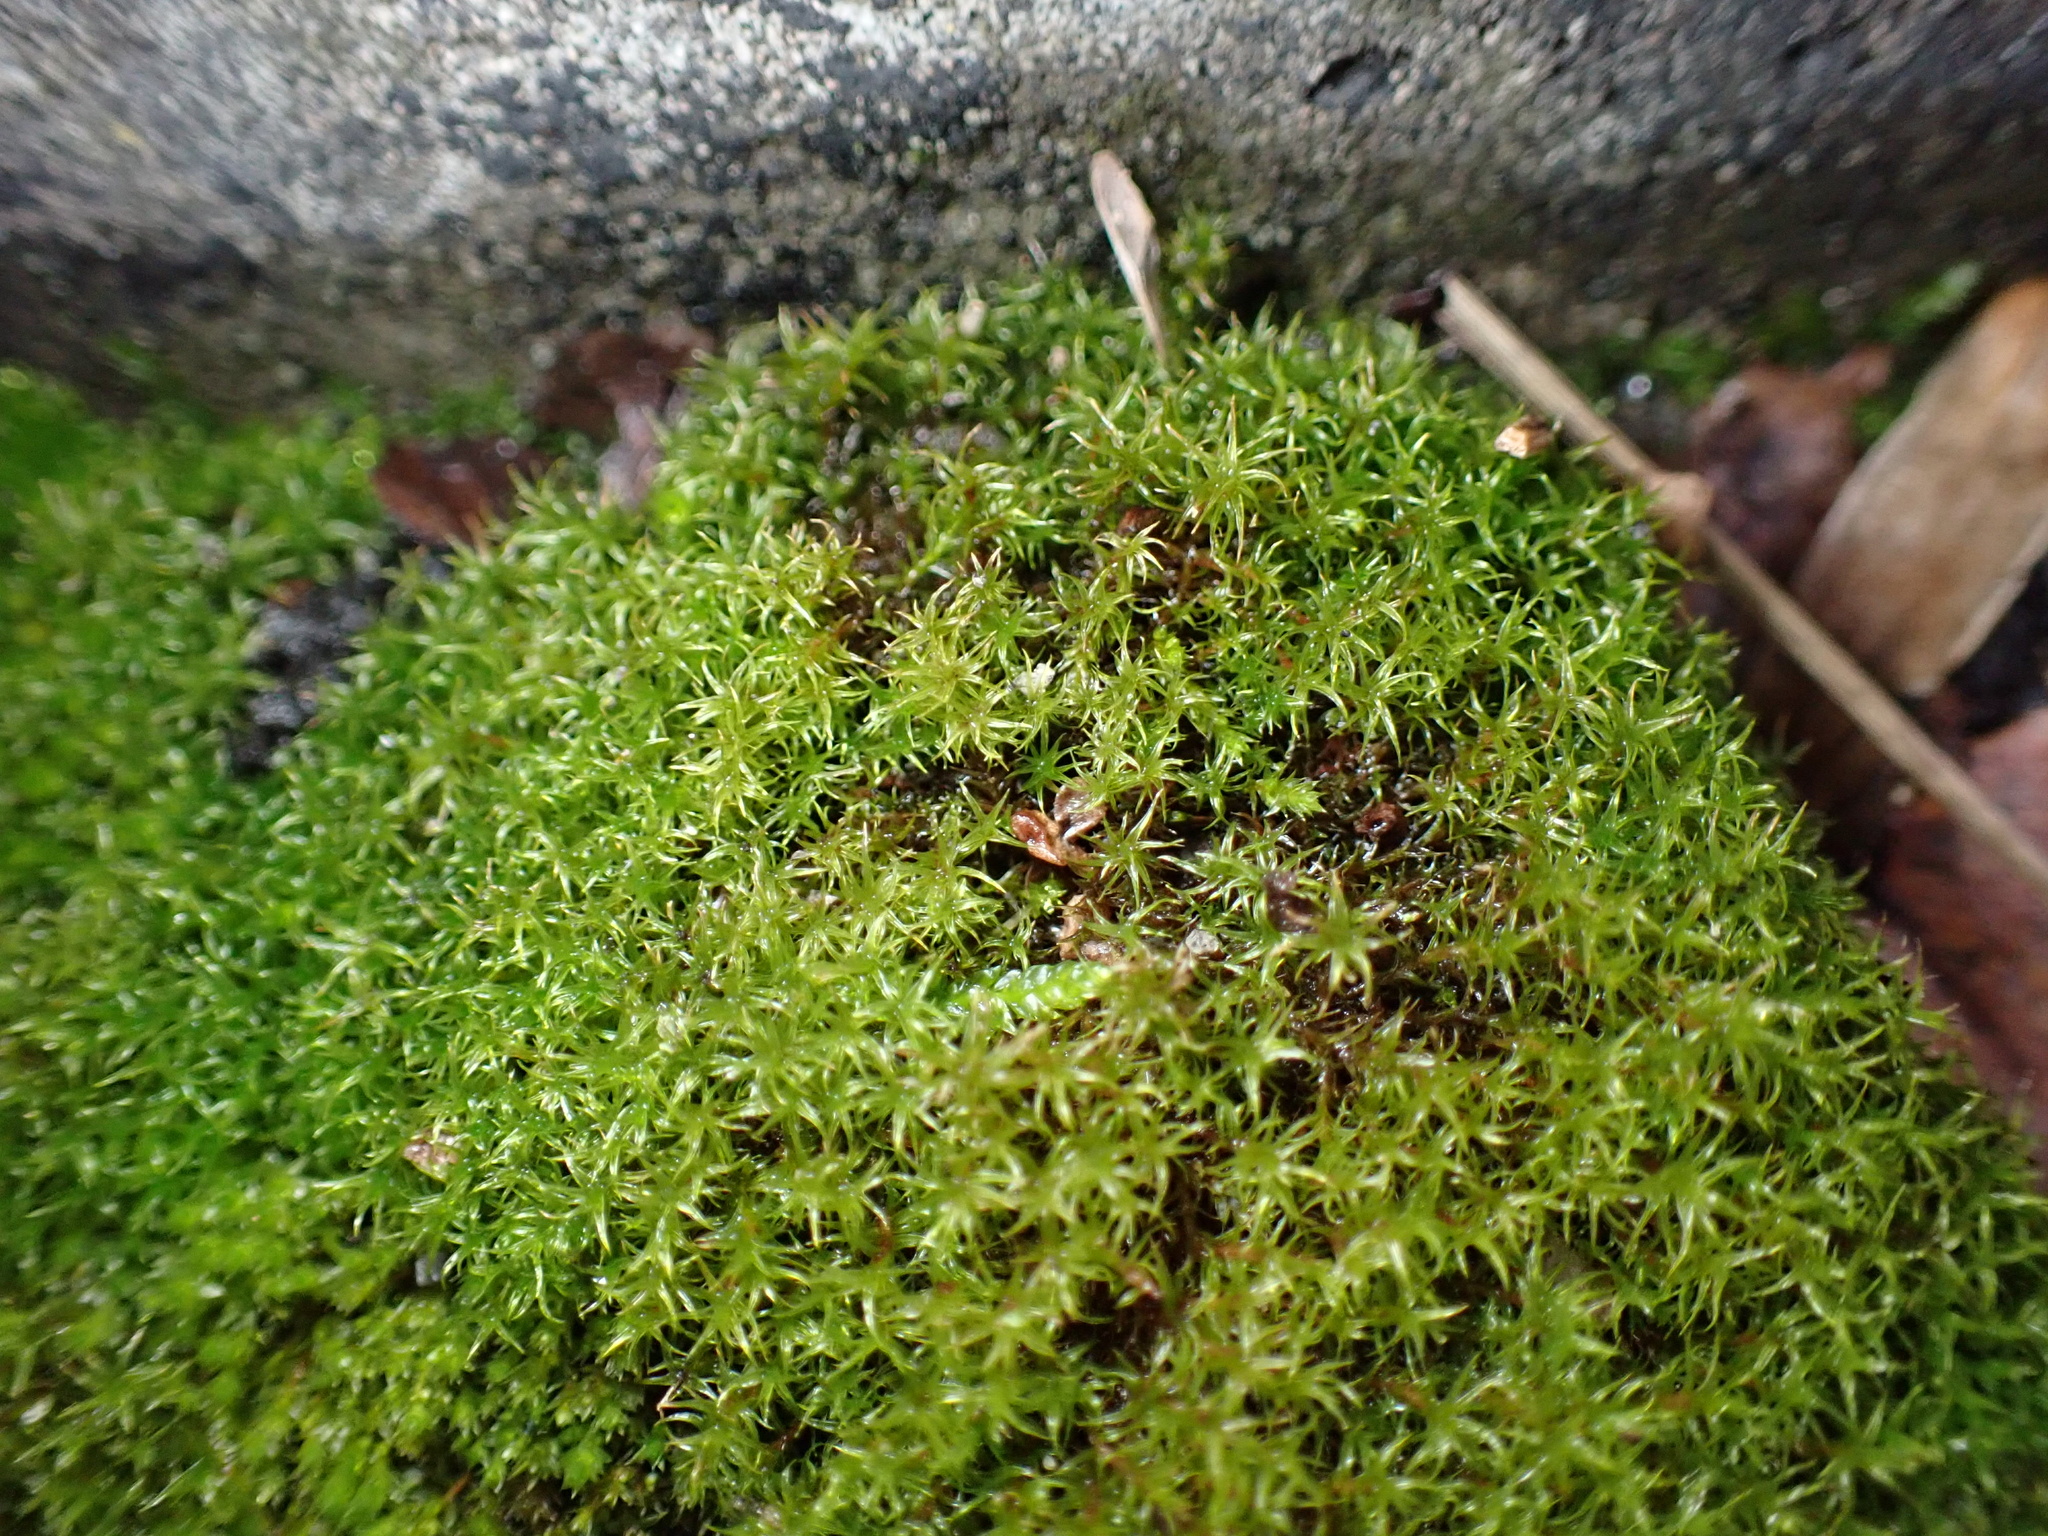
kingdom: Plantae
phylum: Bryophyta
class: Bryopsida
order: Dicranales
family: Ditrichaceae
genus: Ceratodon
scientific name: Ceratodon purpureus
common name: Redshank
